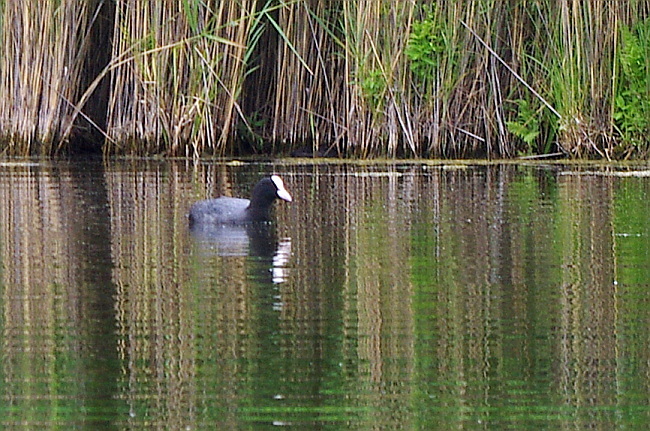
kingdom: Animalia
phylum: Chordata
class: Aves
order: Gruiformes
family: Rallidae
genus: Fulica
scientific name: Fulica atra
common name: Eurasian coot
